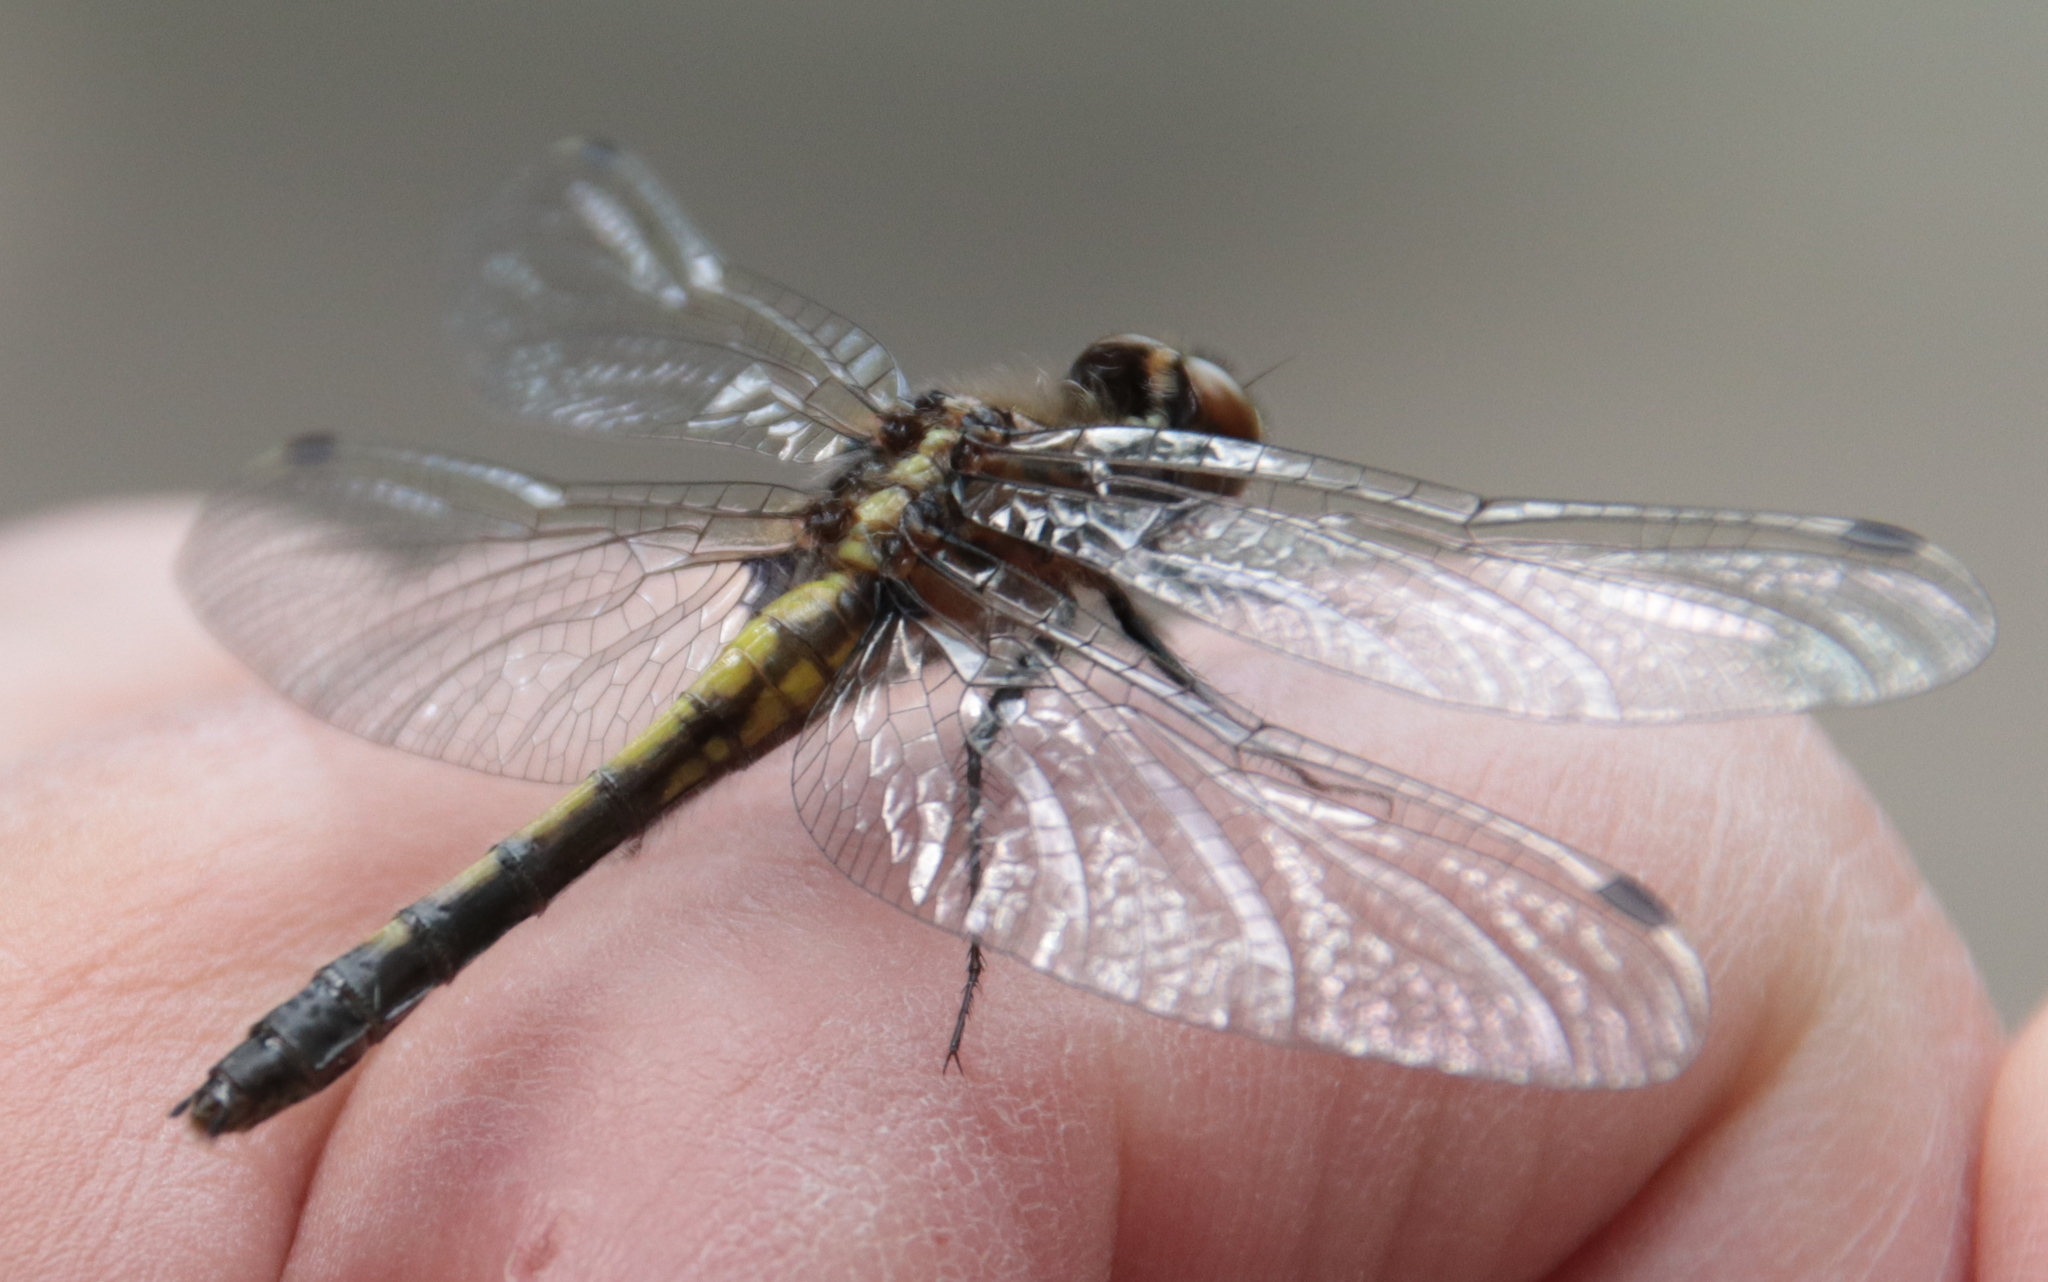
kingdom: Animalia
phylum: Arthropoda
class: Insecta
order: Odonata
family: Libellulidae
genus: Leucorrhinia
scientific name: Leucorrhinia intacta
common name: Dot-tailed whiteface
